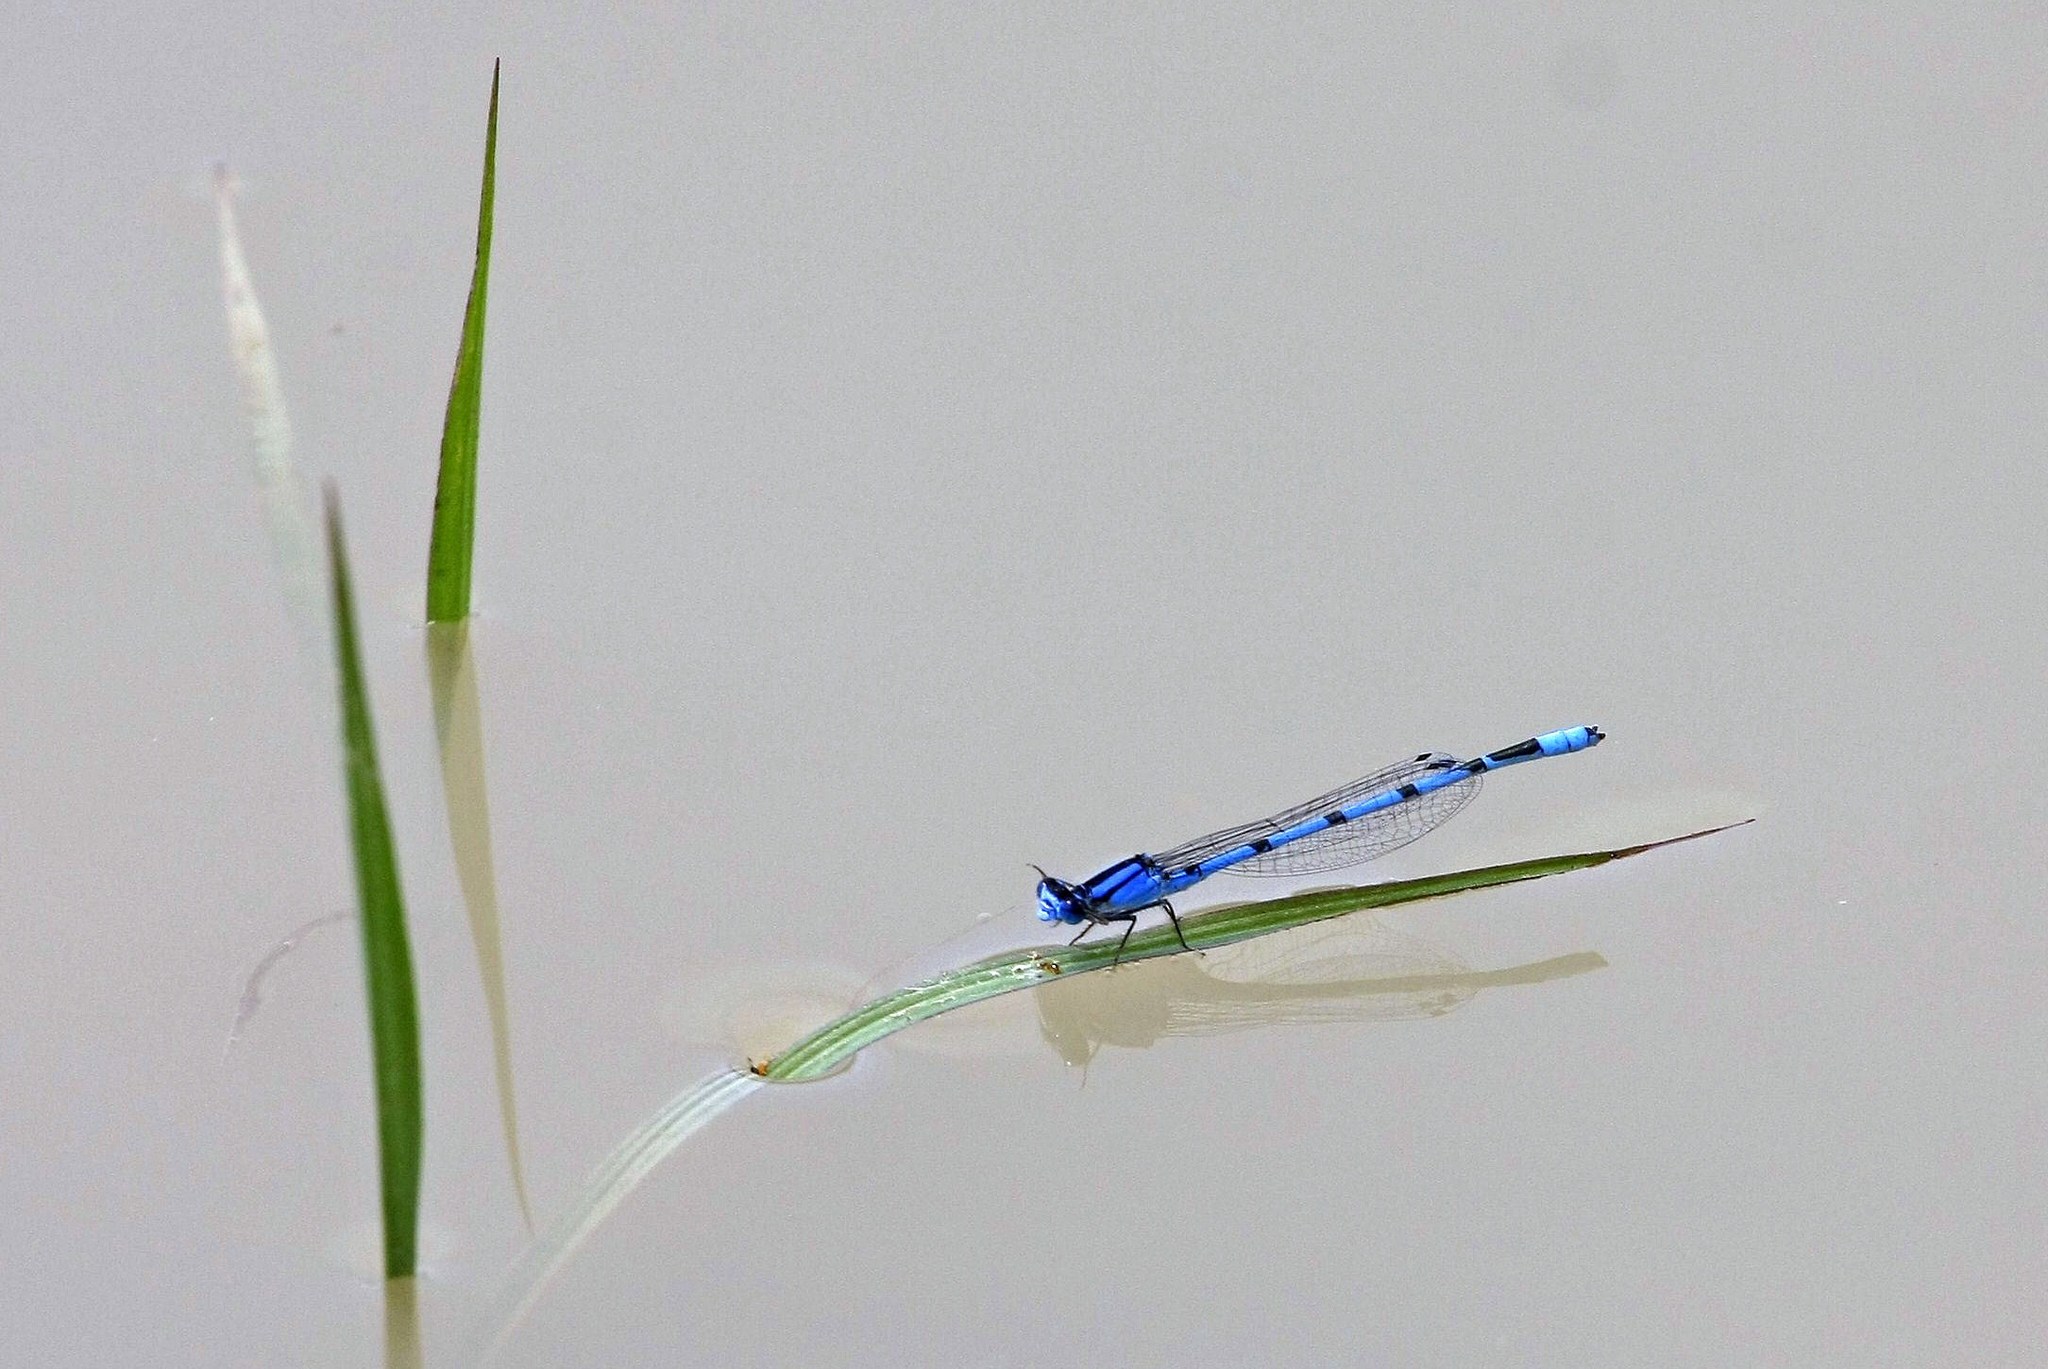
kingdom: Animalia
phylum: Arthropoda
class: Insecta
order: Odonata
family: Coenagrionidae
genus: Enallagma
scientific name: Enallagma civile
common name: Damselfly
